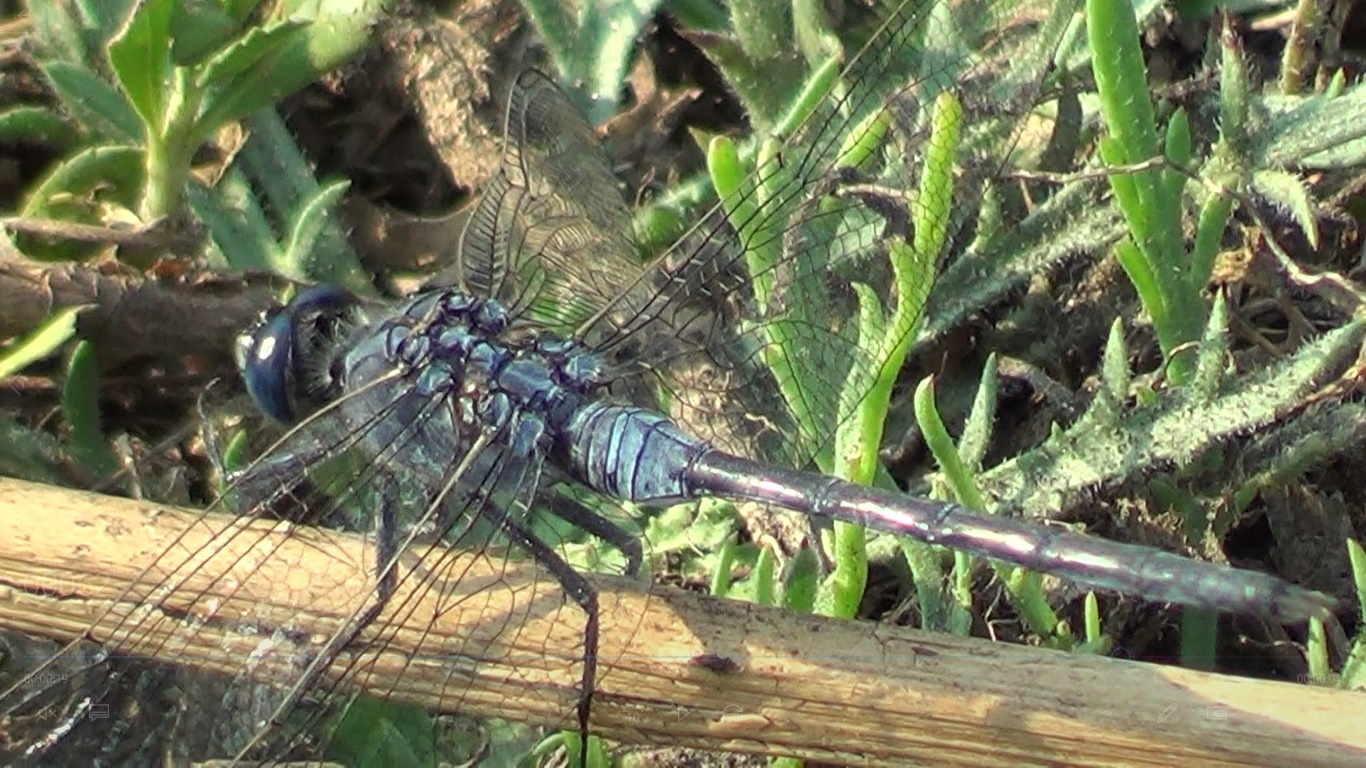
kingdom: Animalia
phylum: Arthropoda
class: Insecta
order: Odonata
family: Libellulidae
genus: Orthetrum
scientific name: Orthetrum trinacria
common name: Long skimmer
